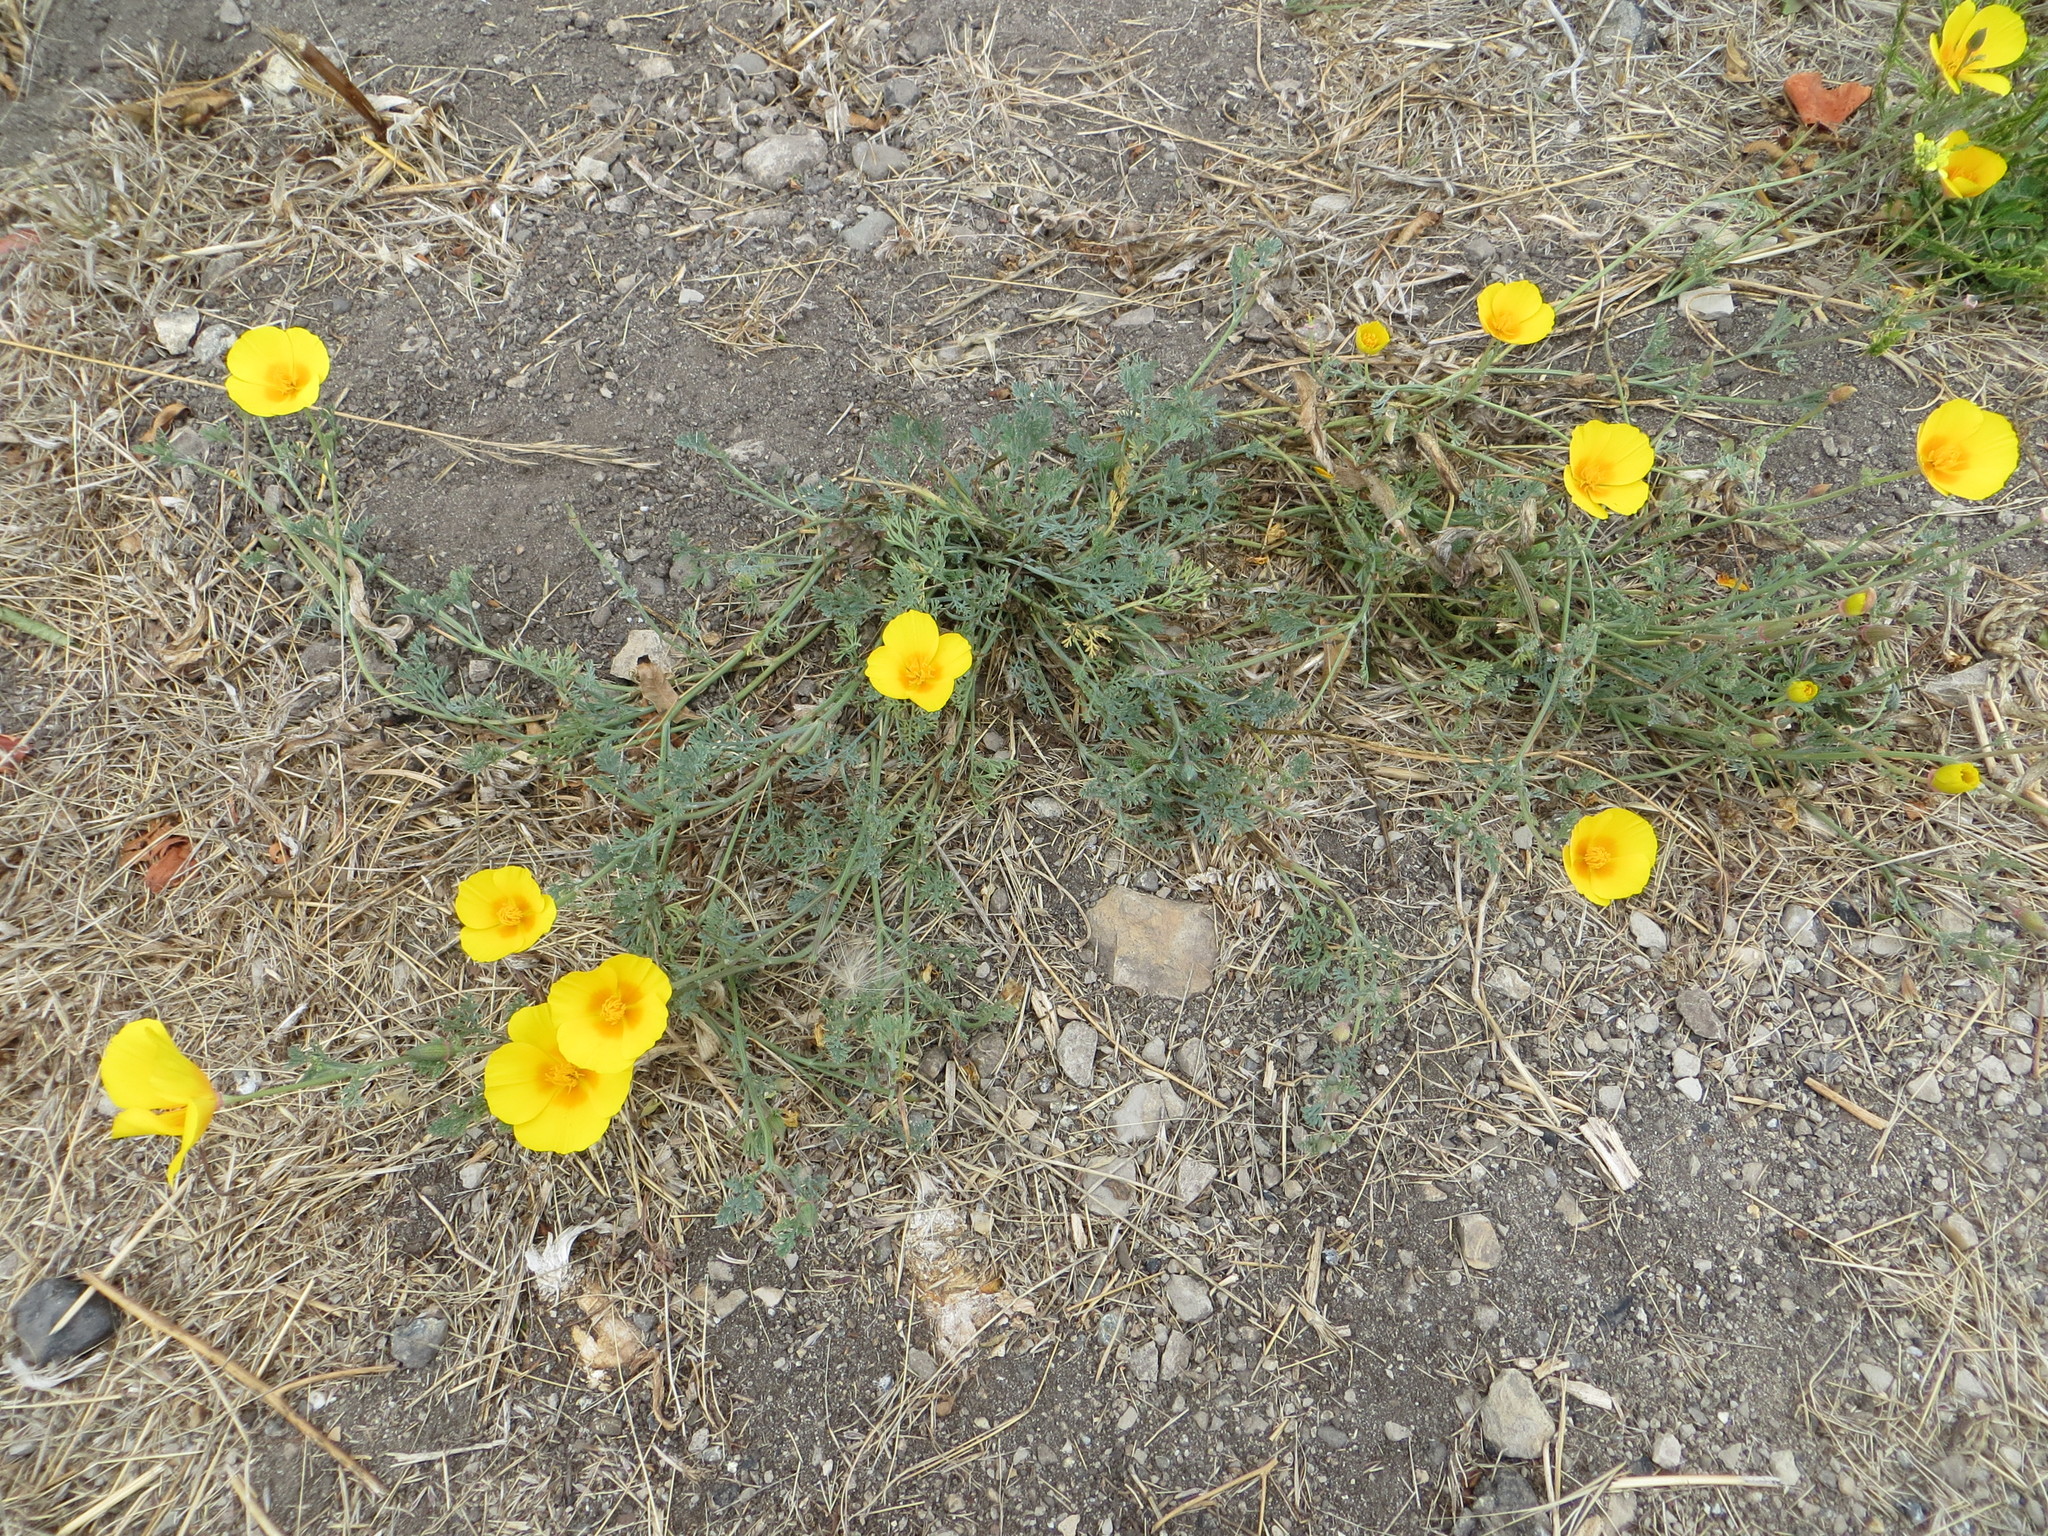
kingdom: Plantae
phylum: Tracheophyta
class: Magnoliopsida
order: Ranunculales
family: Papaveraceae
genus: Eschscholzia
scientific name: Eschscholzia californica
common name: California poppy
